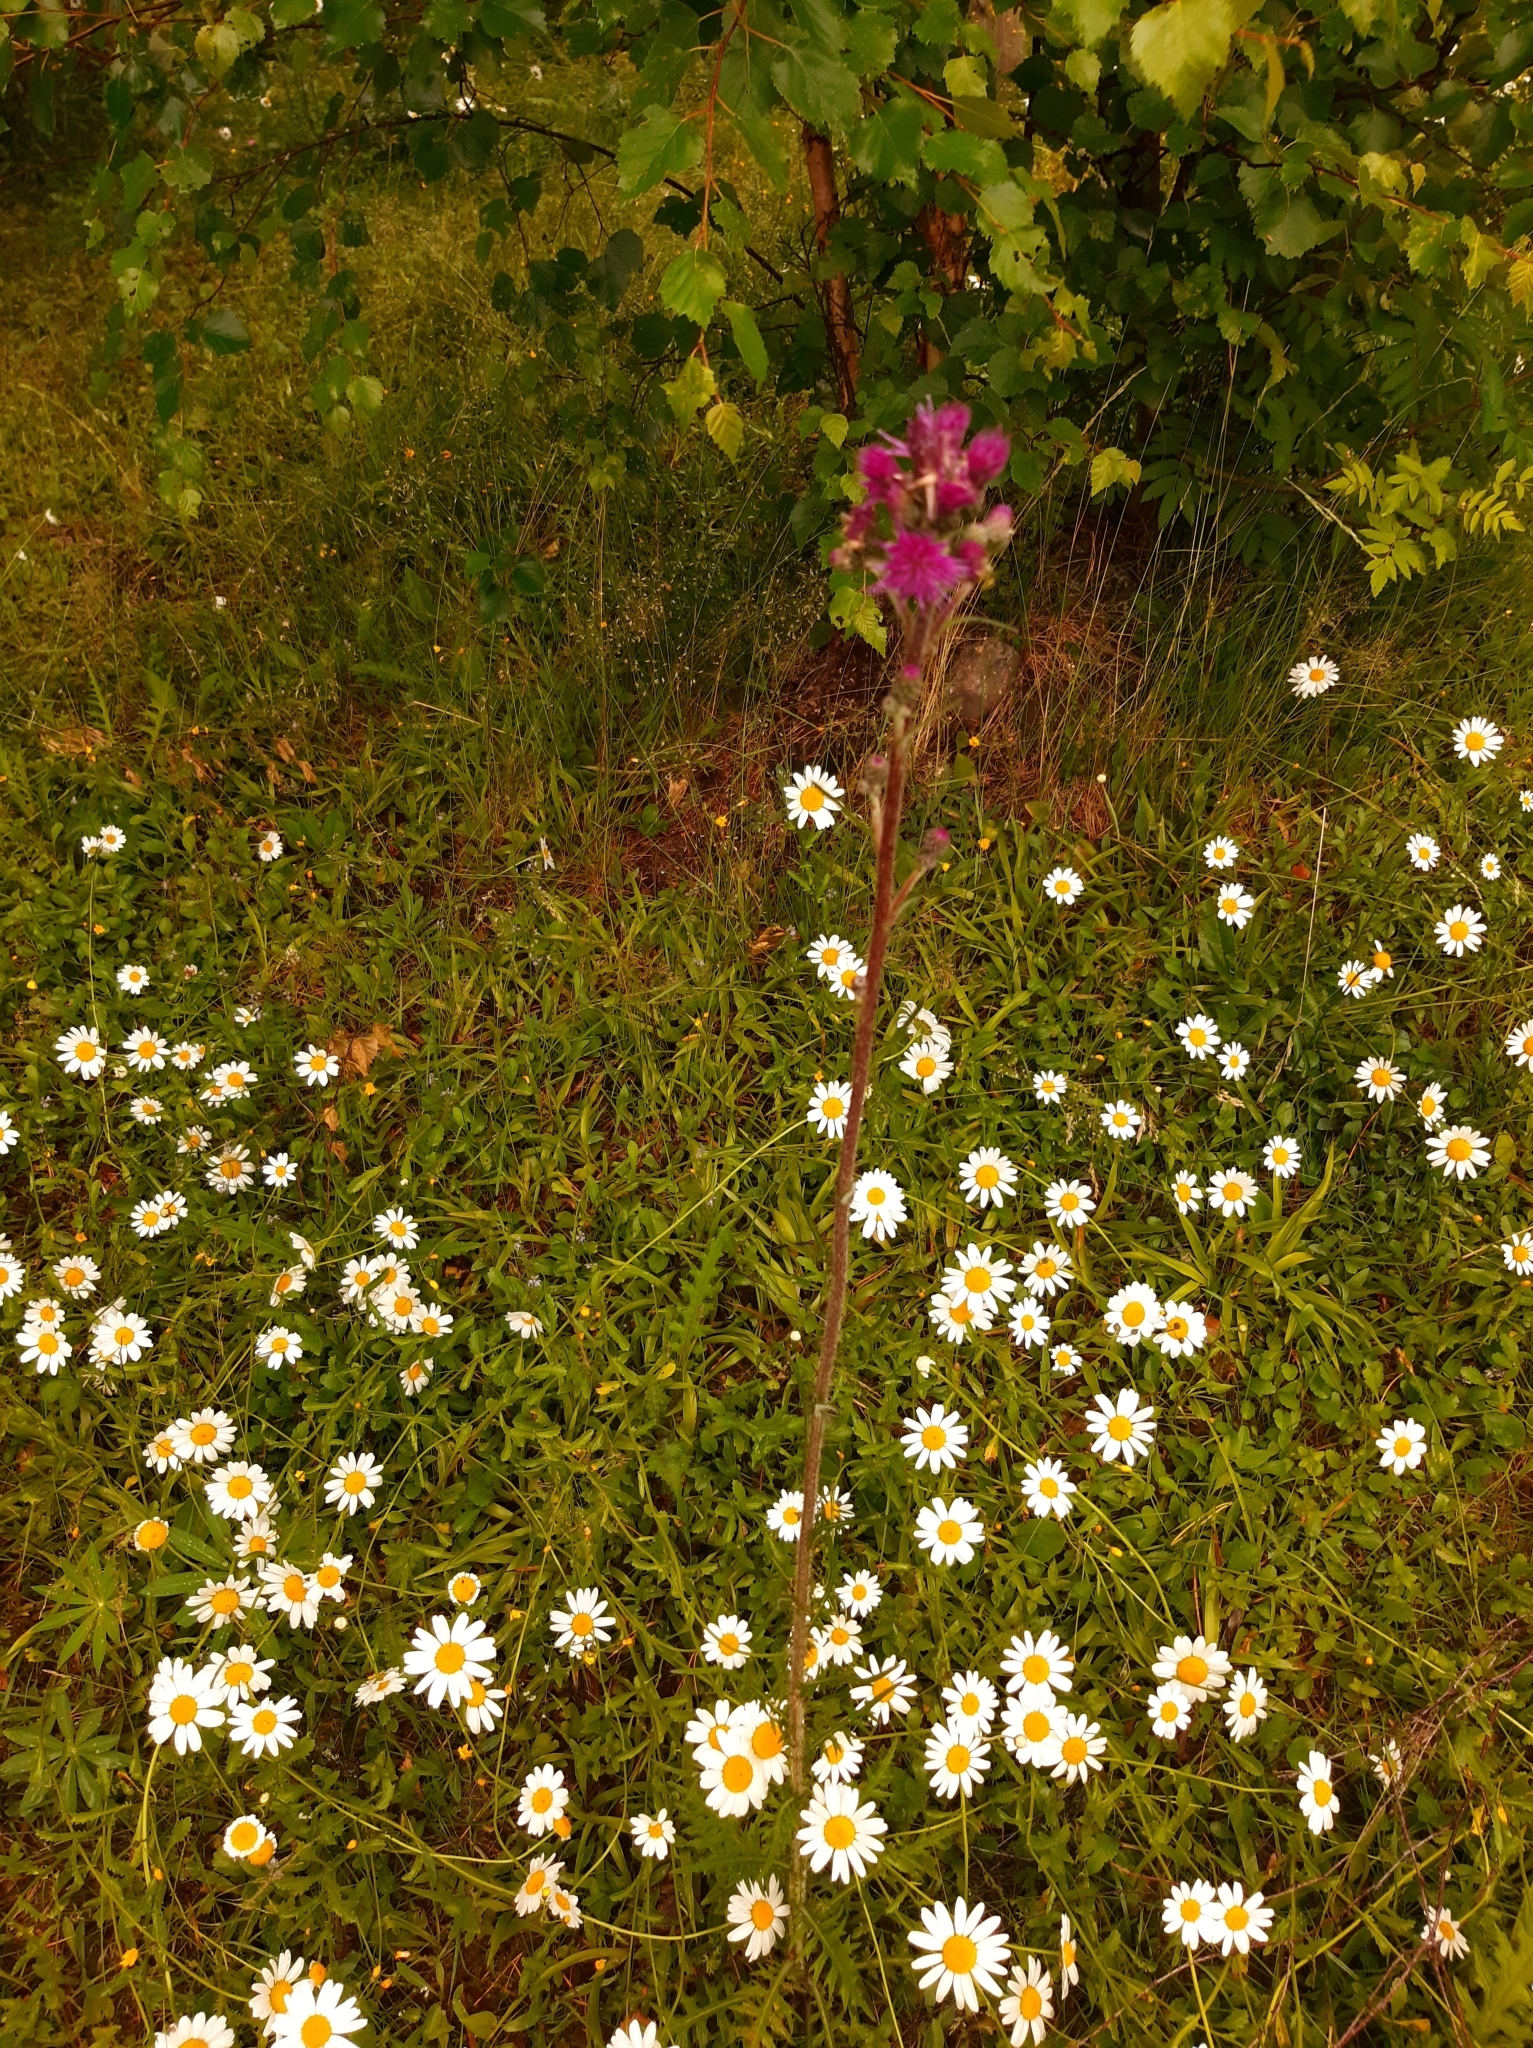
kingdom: Plantae
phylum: Tracheophyta
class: Magnoliopsida
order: Asterales
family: Asteraceae
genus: Cirsium
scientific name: Cirsium palustre
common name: Marsh thistle
